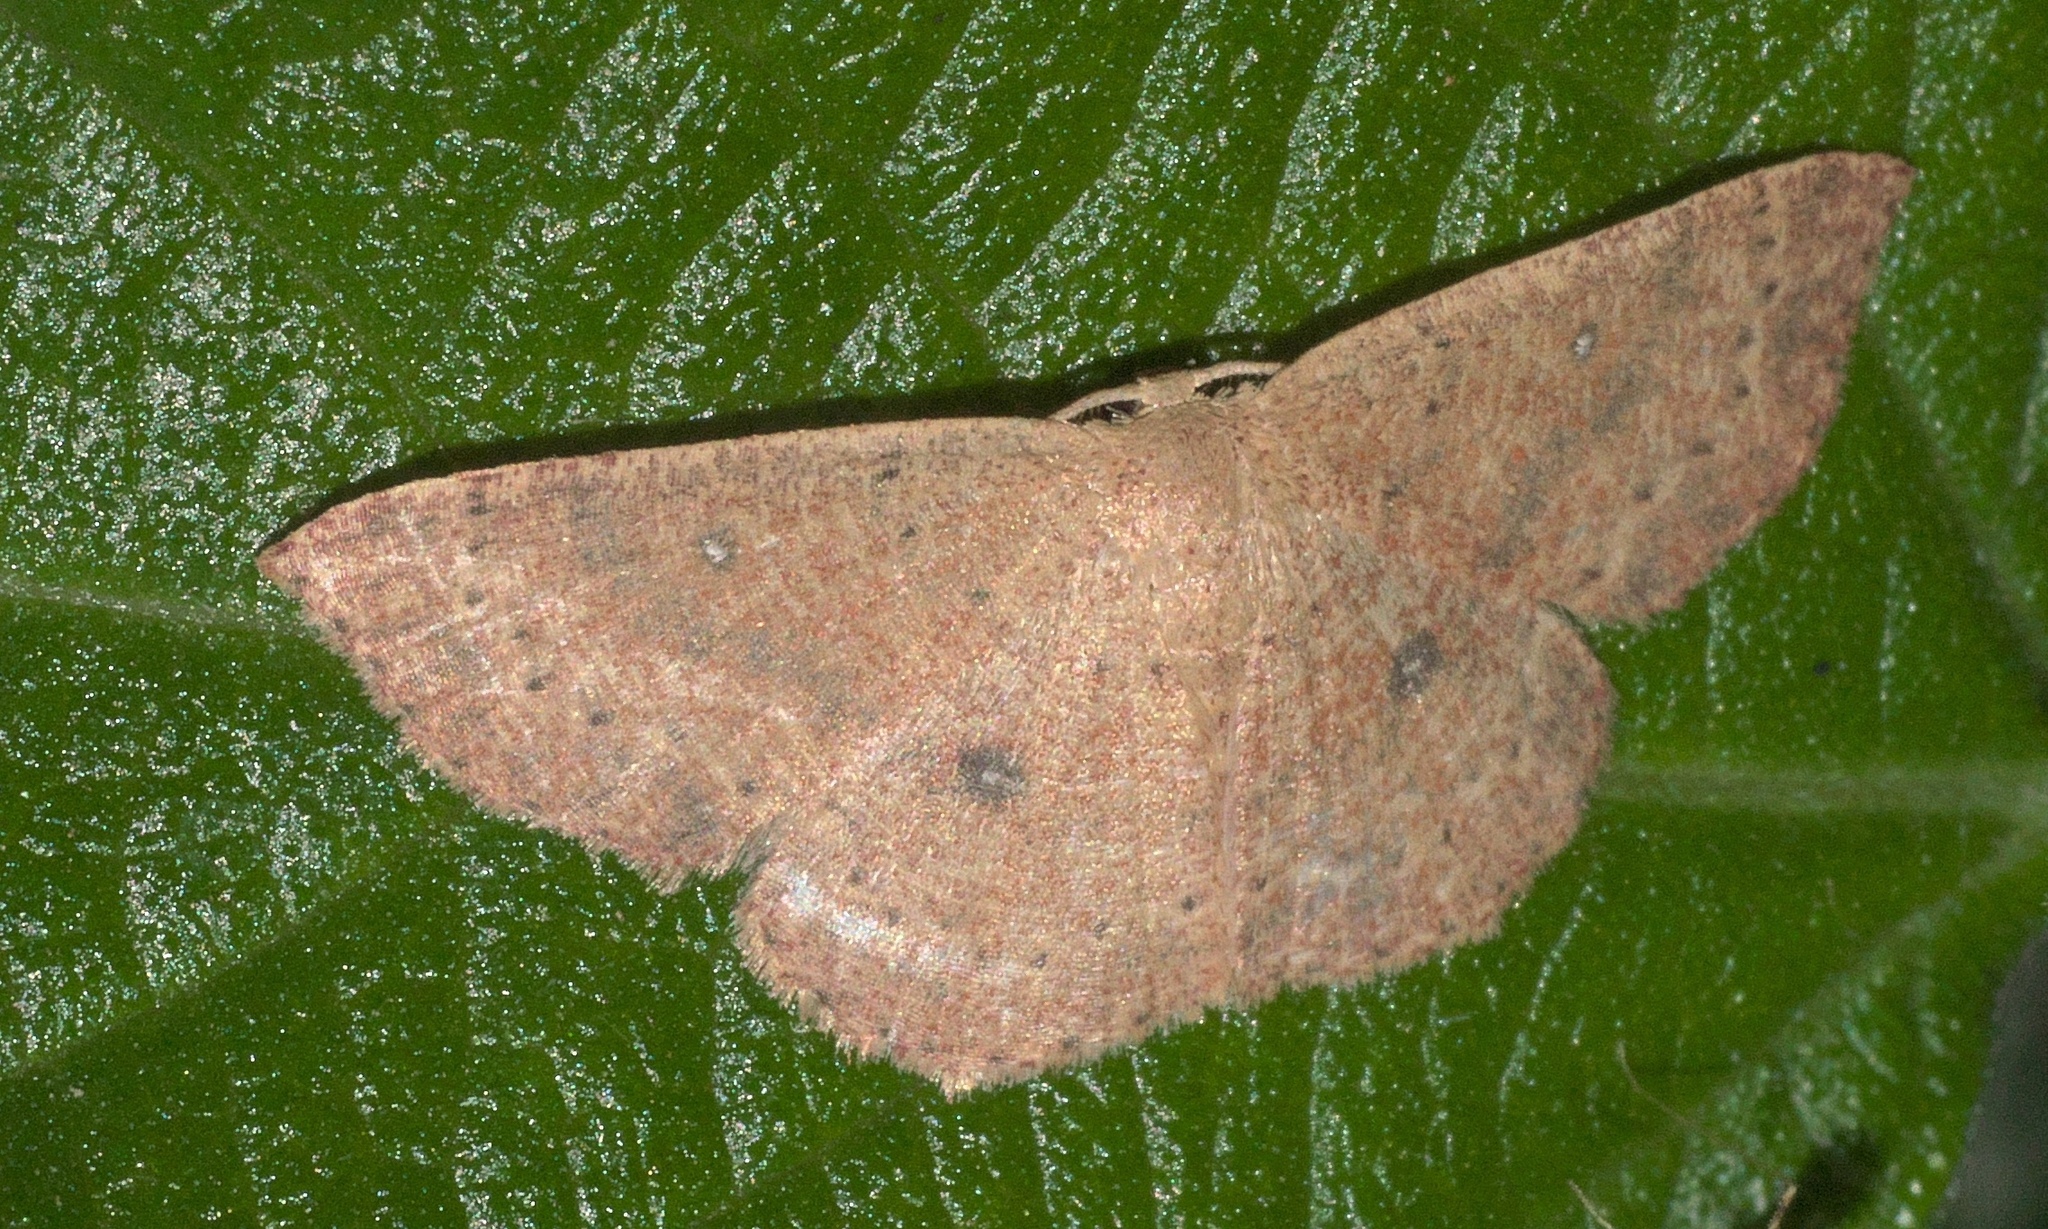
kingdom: Animalia
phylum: Arthropoda
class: Insecta
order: Lepidoptera
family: Geometridae
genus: Cyclophora
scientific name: Cyclophora packardi
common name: Packard's wave
